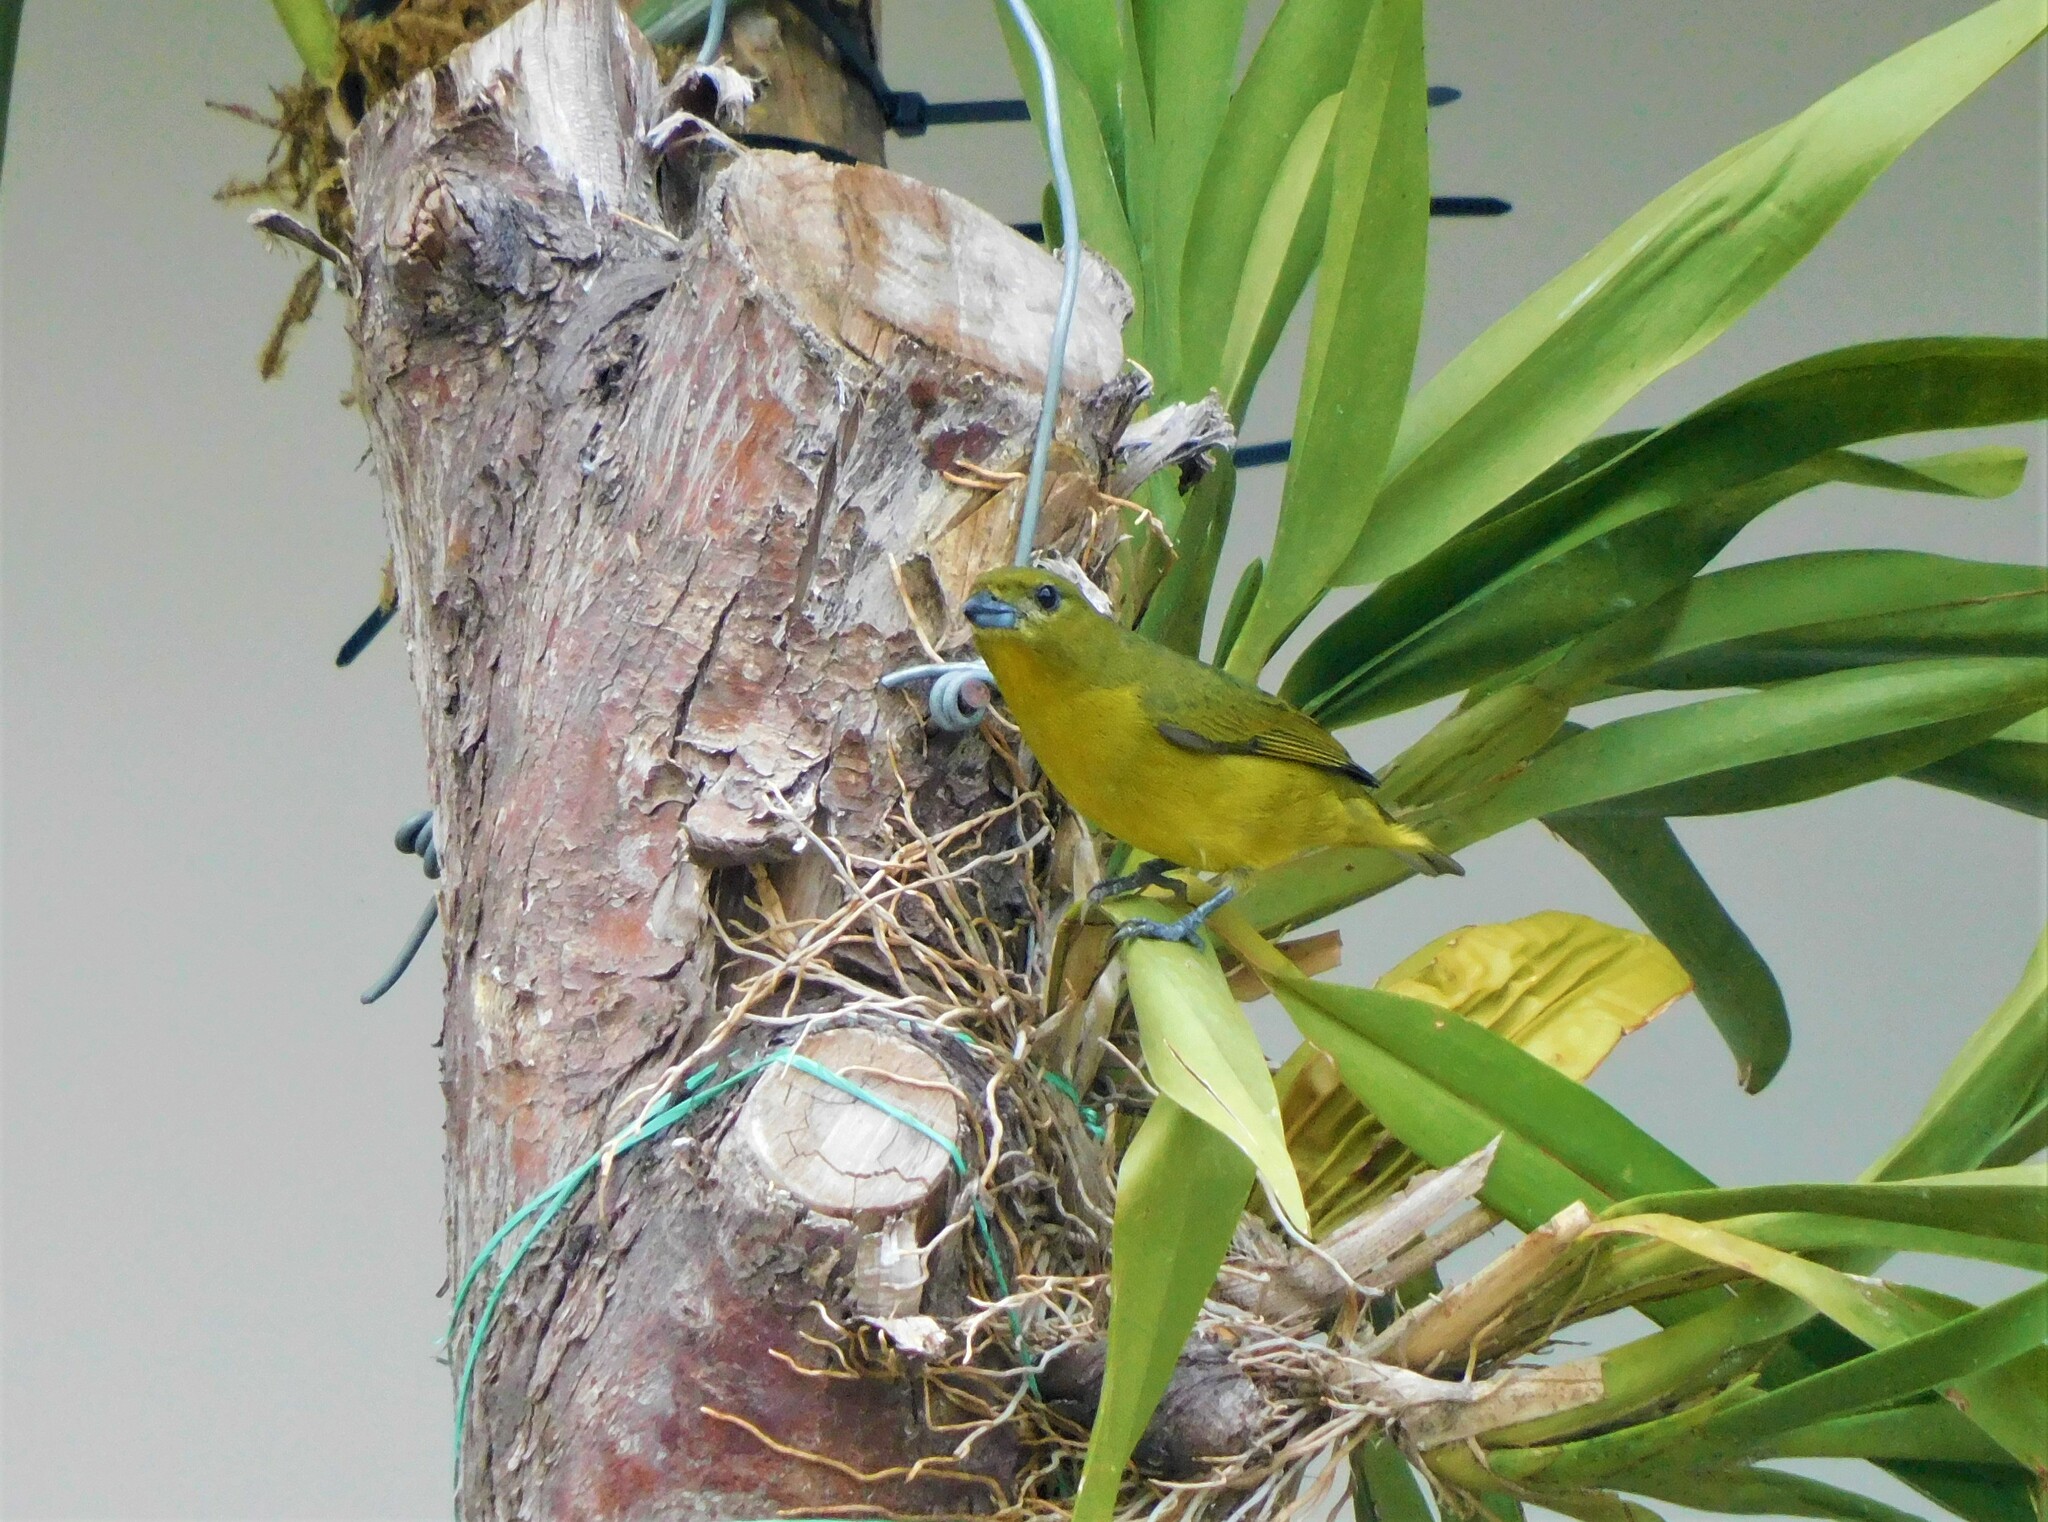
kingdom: Animalia
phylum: Chordata
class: Aves
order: Passeriformes
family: Fringillidae
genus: Euphonia
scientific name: Euphonia laniirostris
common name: Thick-billed euphonia
